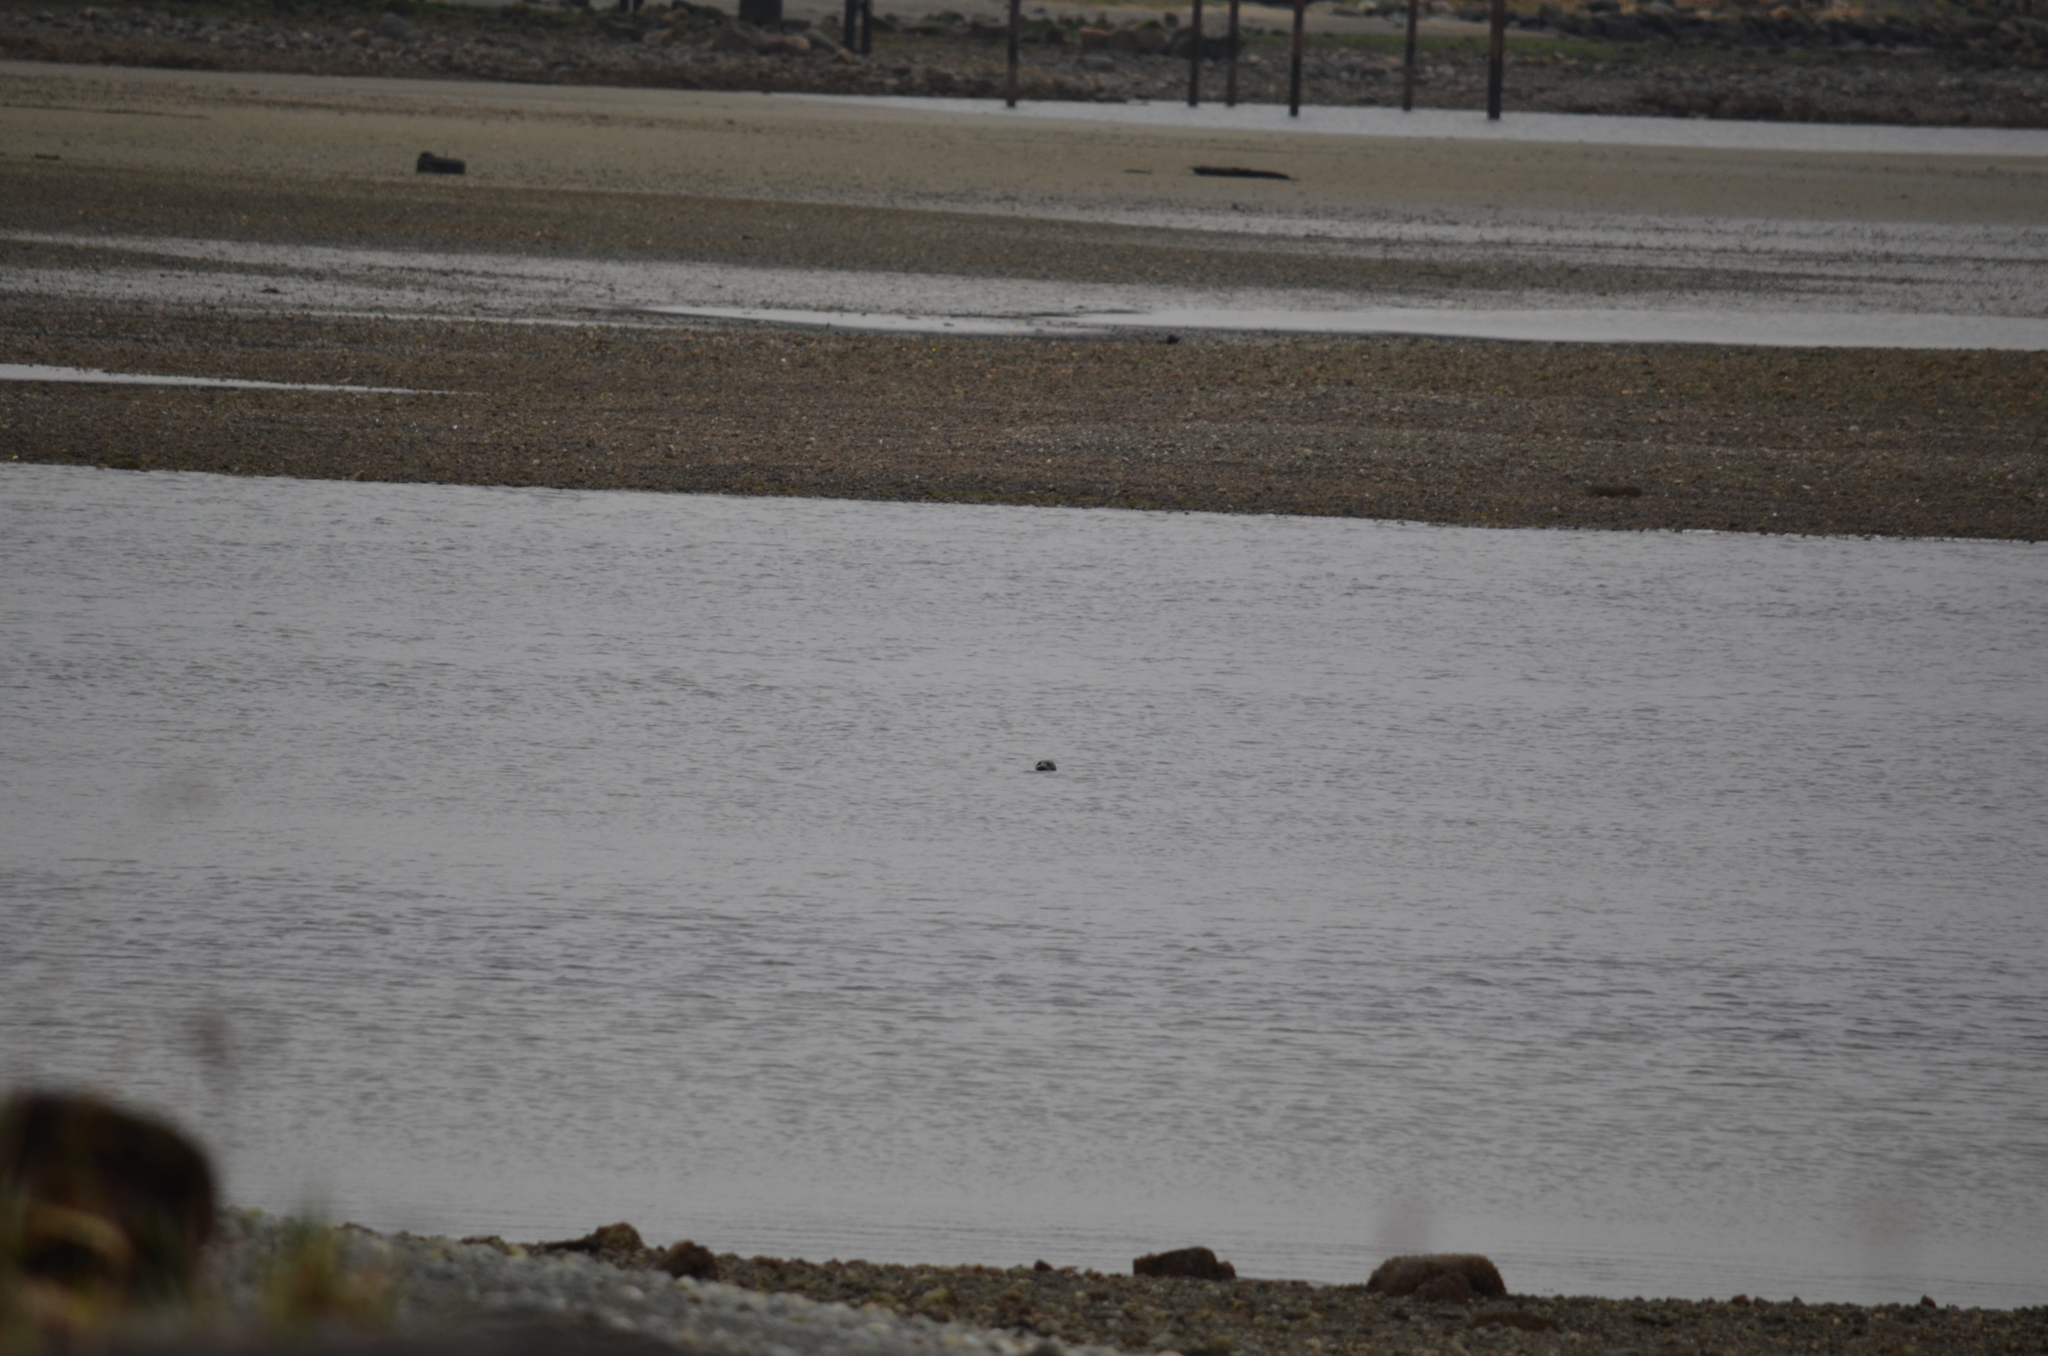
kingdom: Animalia
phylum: Chordata
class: Mammalia
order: Carnivora
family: Phocidae
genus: Phoca
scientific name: Phoca vitulina
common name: Harbor seal
